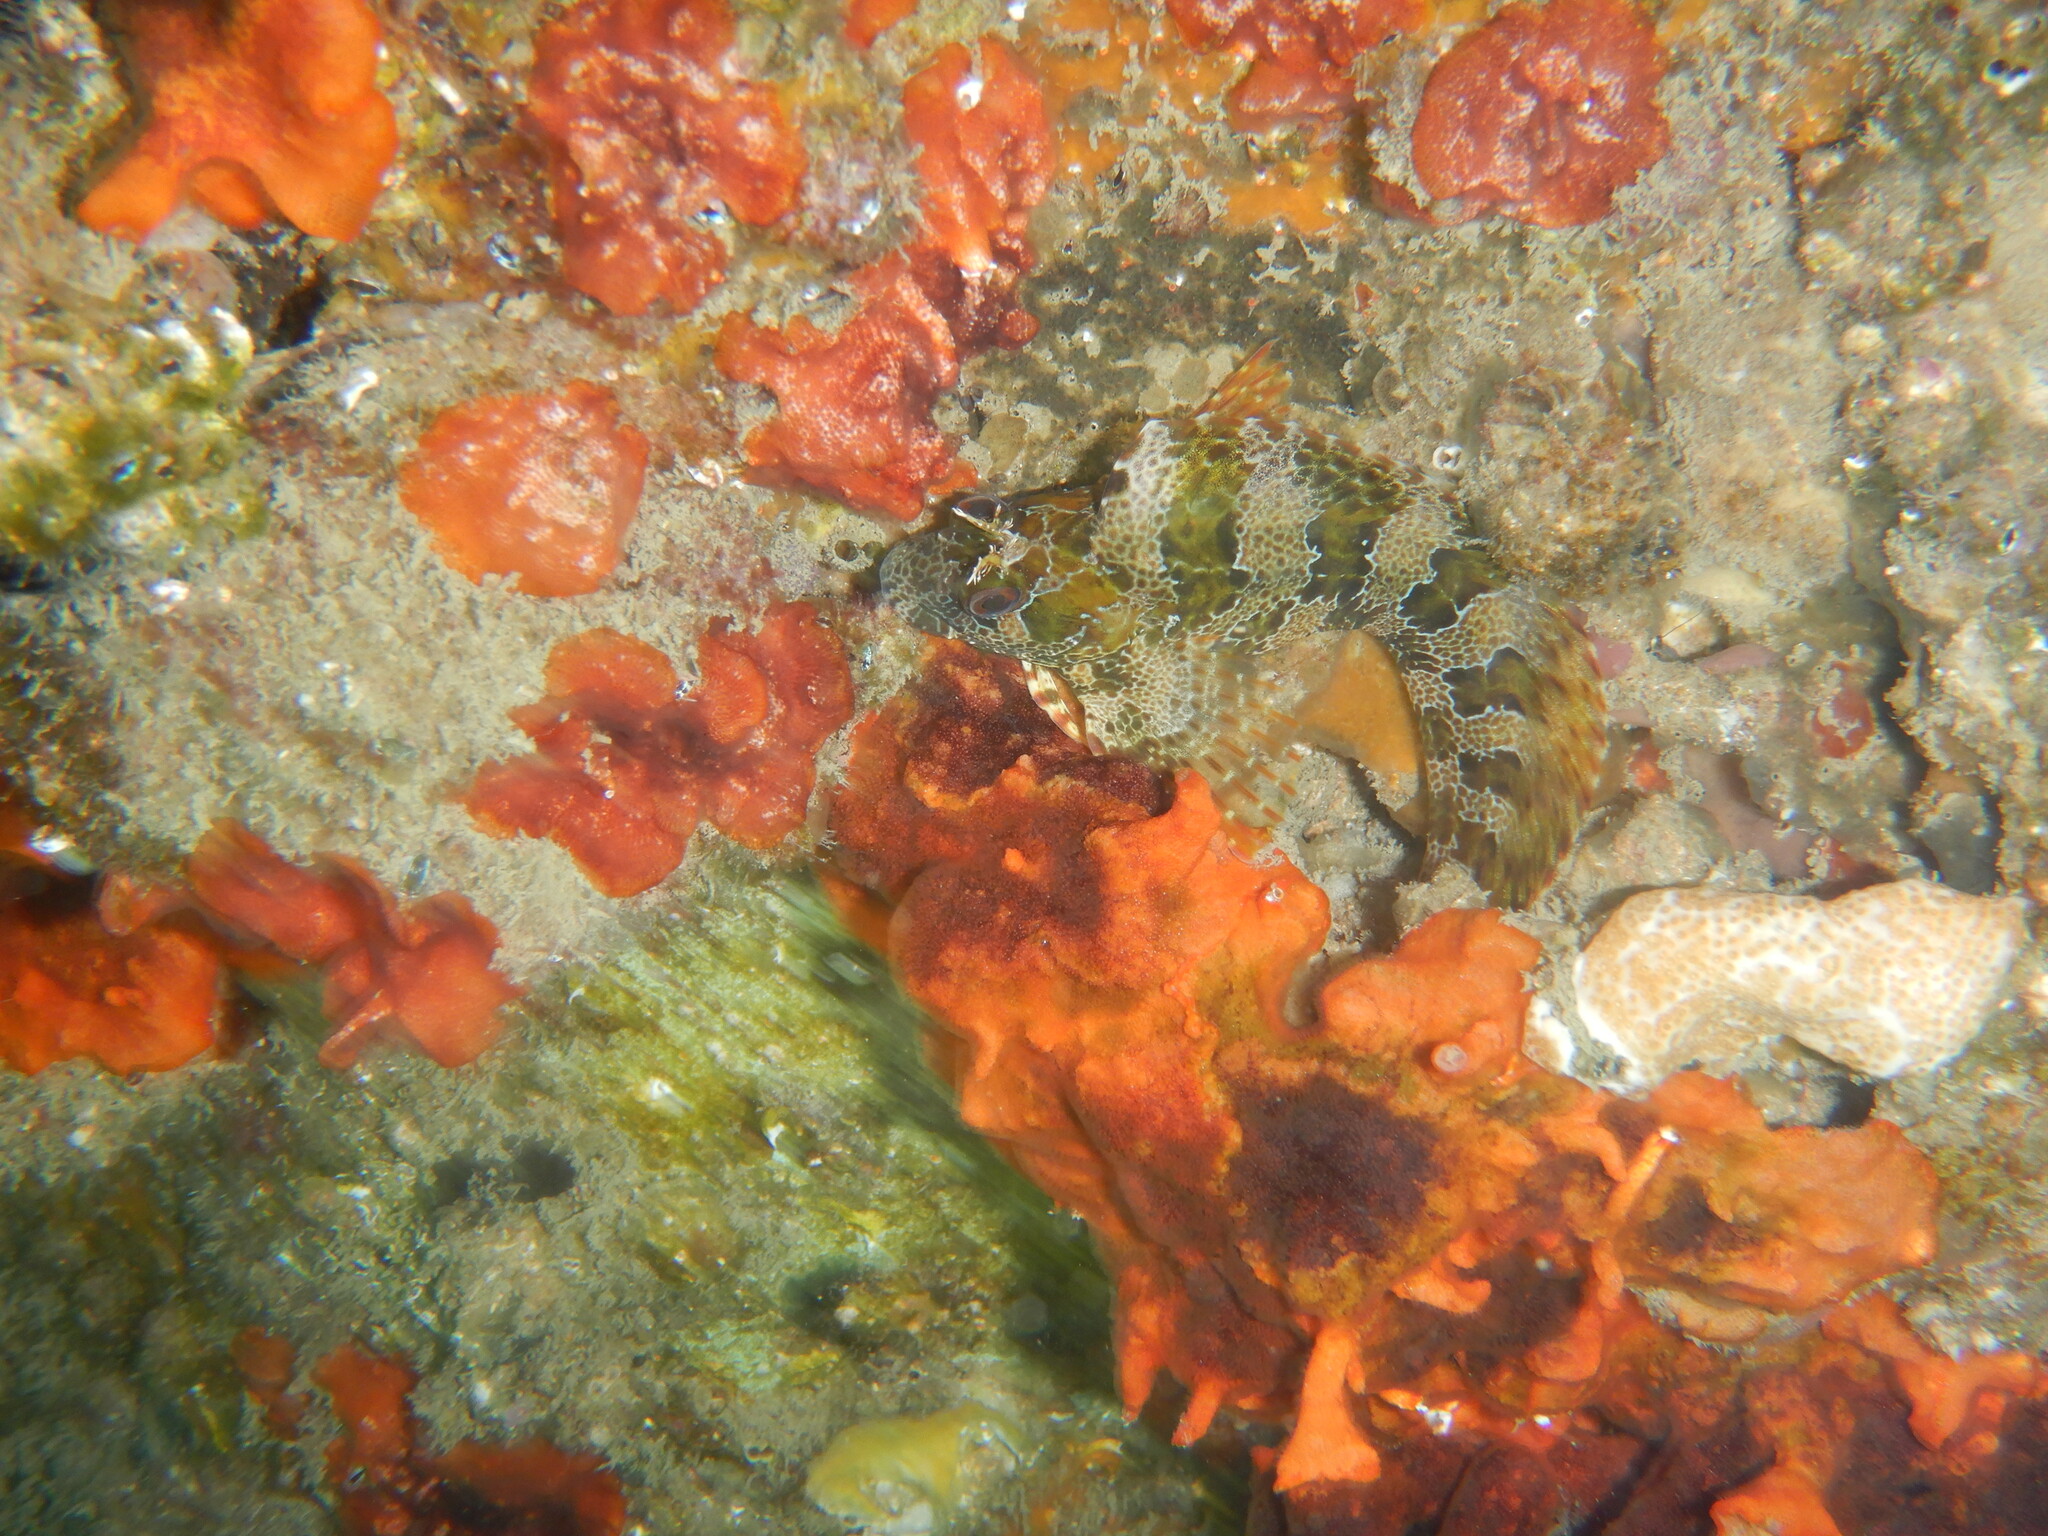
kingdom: Animalia
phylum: Chordata
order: Perciformes
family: Blenniidae
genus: Parablennius
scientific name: Parablennius gattorugine
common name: Tompot blenny
